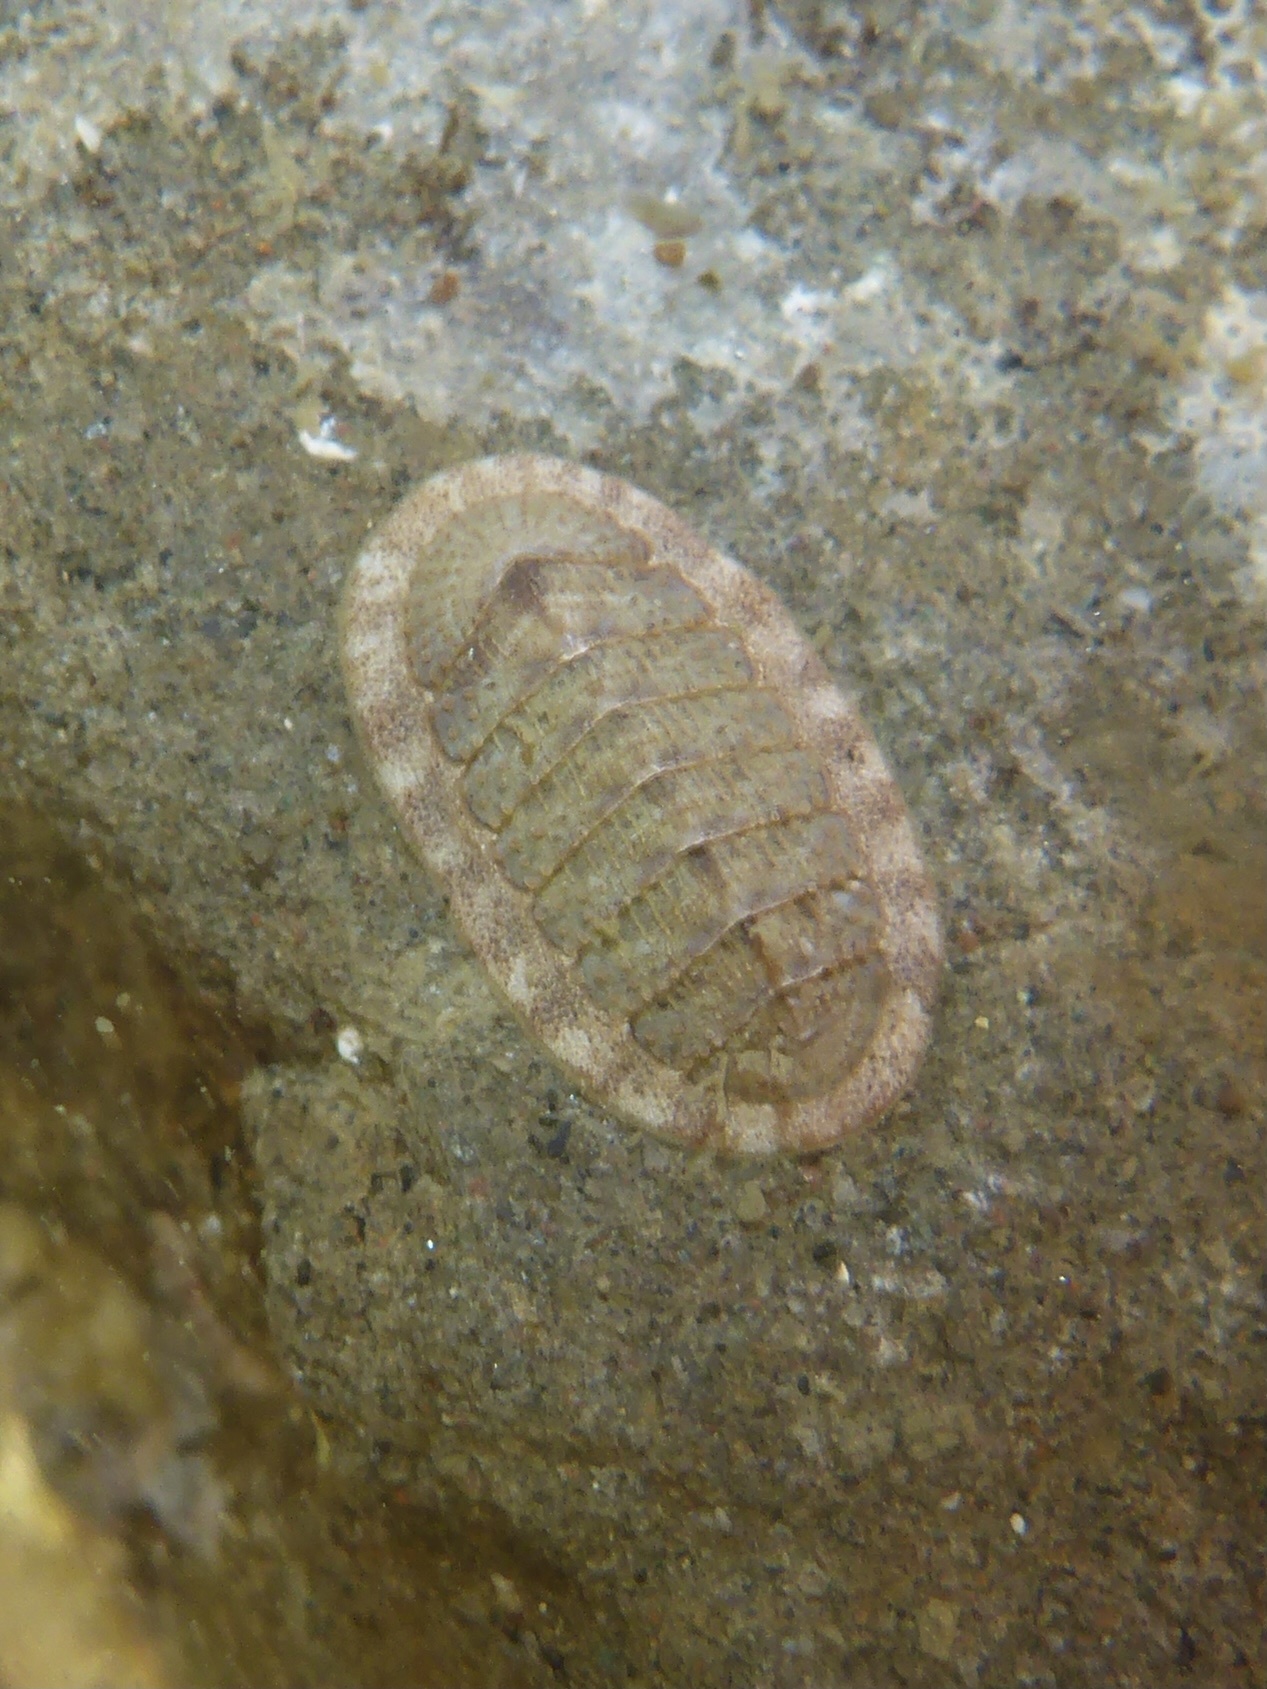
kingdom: Animalia
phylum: Mollusca
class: Polyplacophora
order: Chitonida
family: Ischnochitonidae
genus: Lepidozona
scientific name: Lepidozona cooperi
